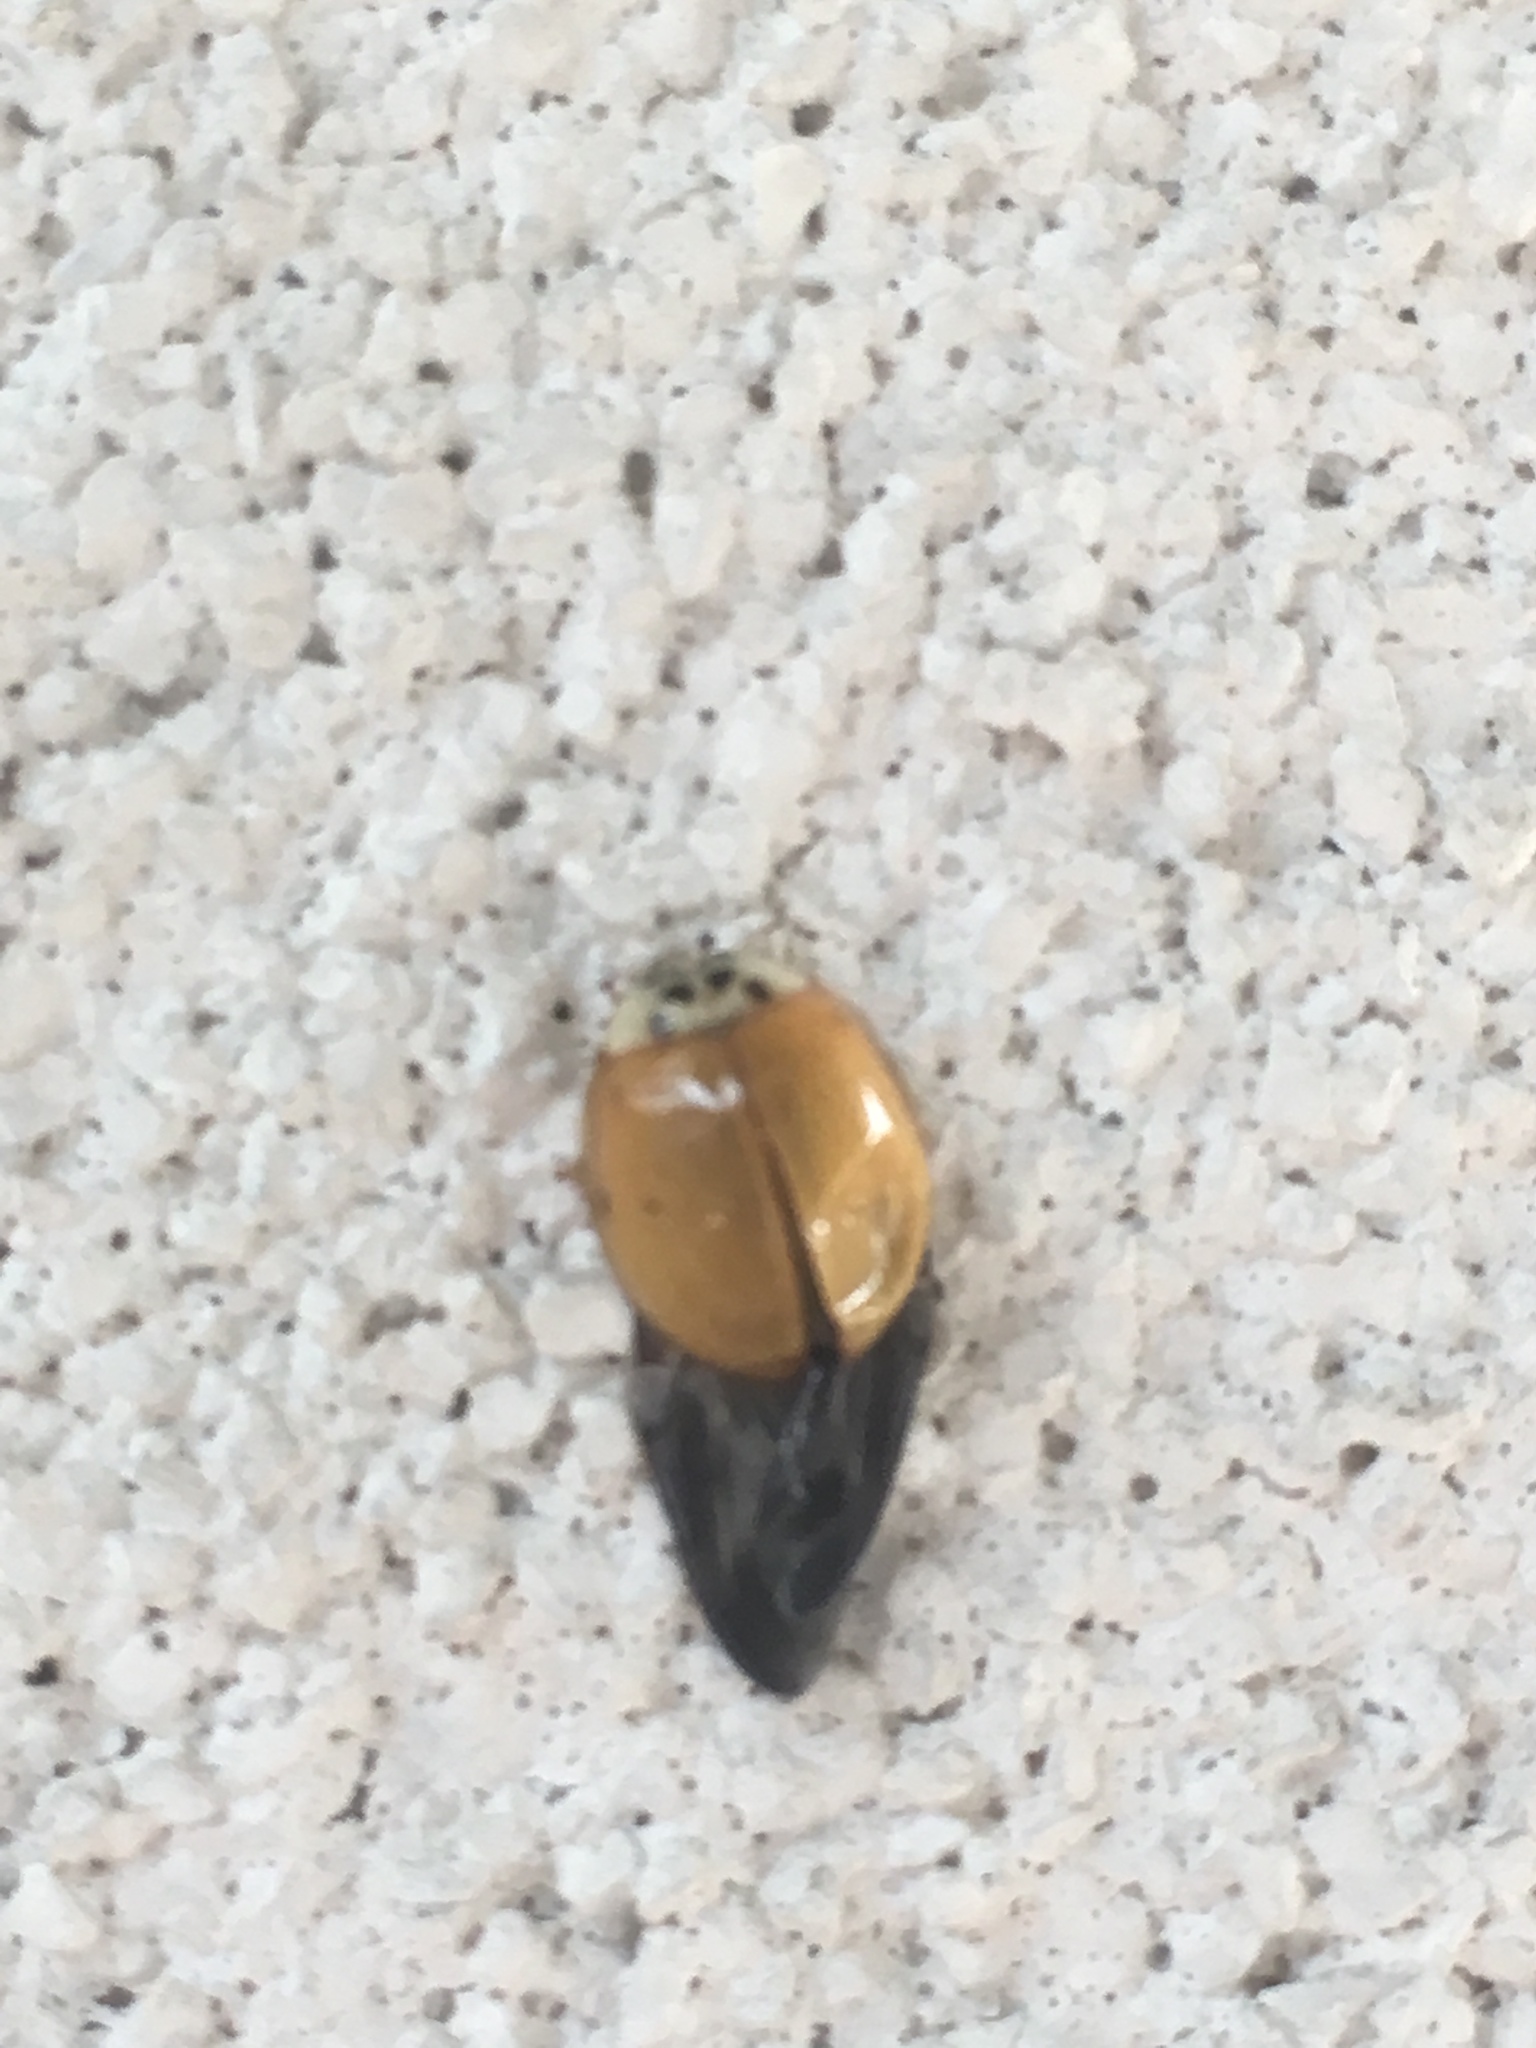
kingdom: Animalia
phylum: Arthropoda
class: Insecta
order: Coleoptera
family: Coccinellidae
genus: Harmonia
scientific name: Harmonia axyridis
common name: Harlequin ladybird
